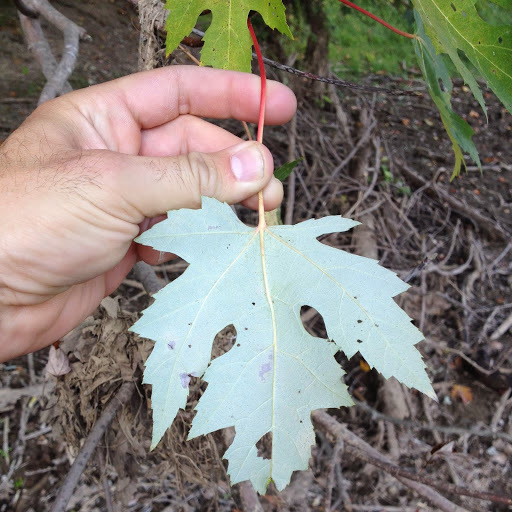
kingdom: Plantae
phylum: Tracheophyta
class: Magnoliopsida
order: Sapindales
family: Sapindaceae
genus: Acer
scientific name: Acer saccharinum
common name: Silver maple
